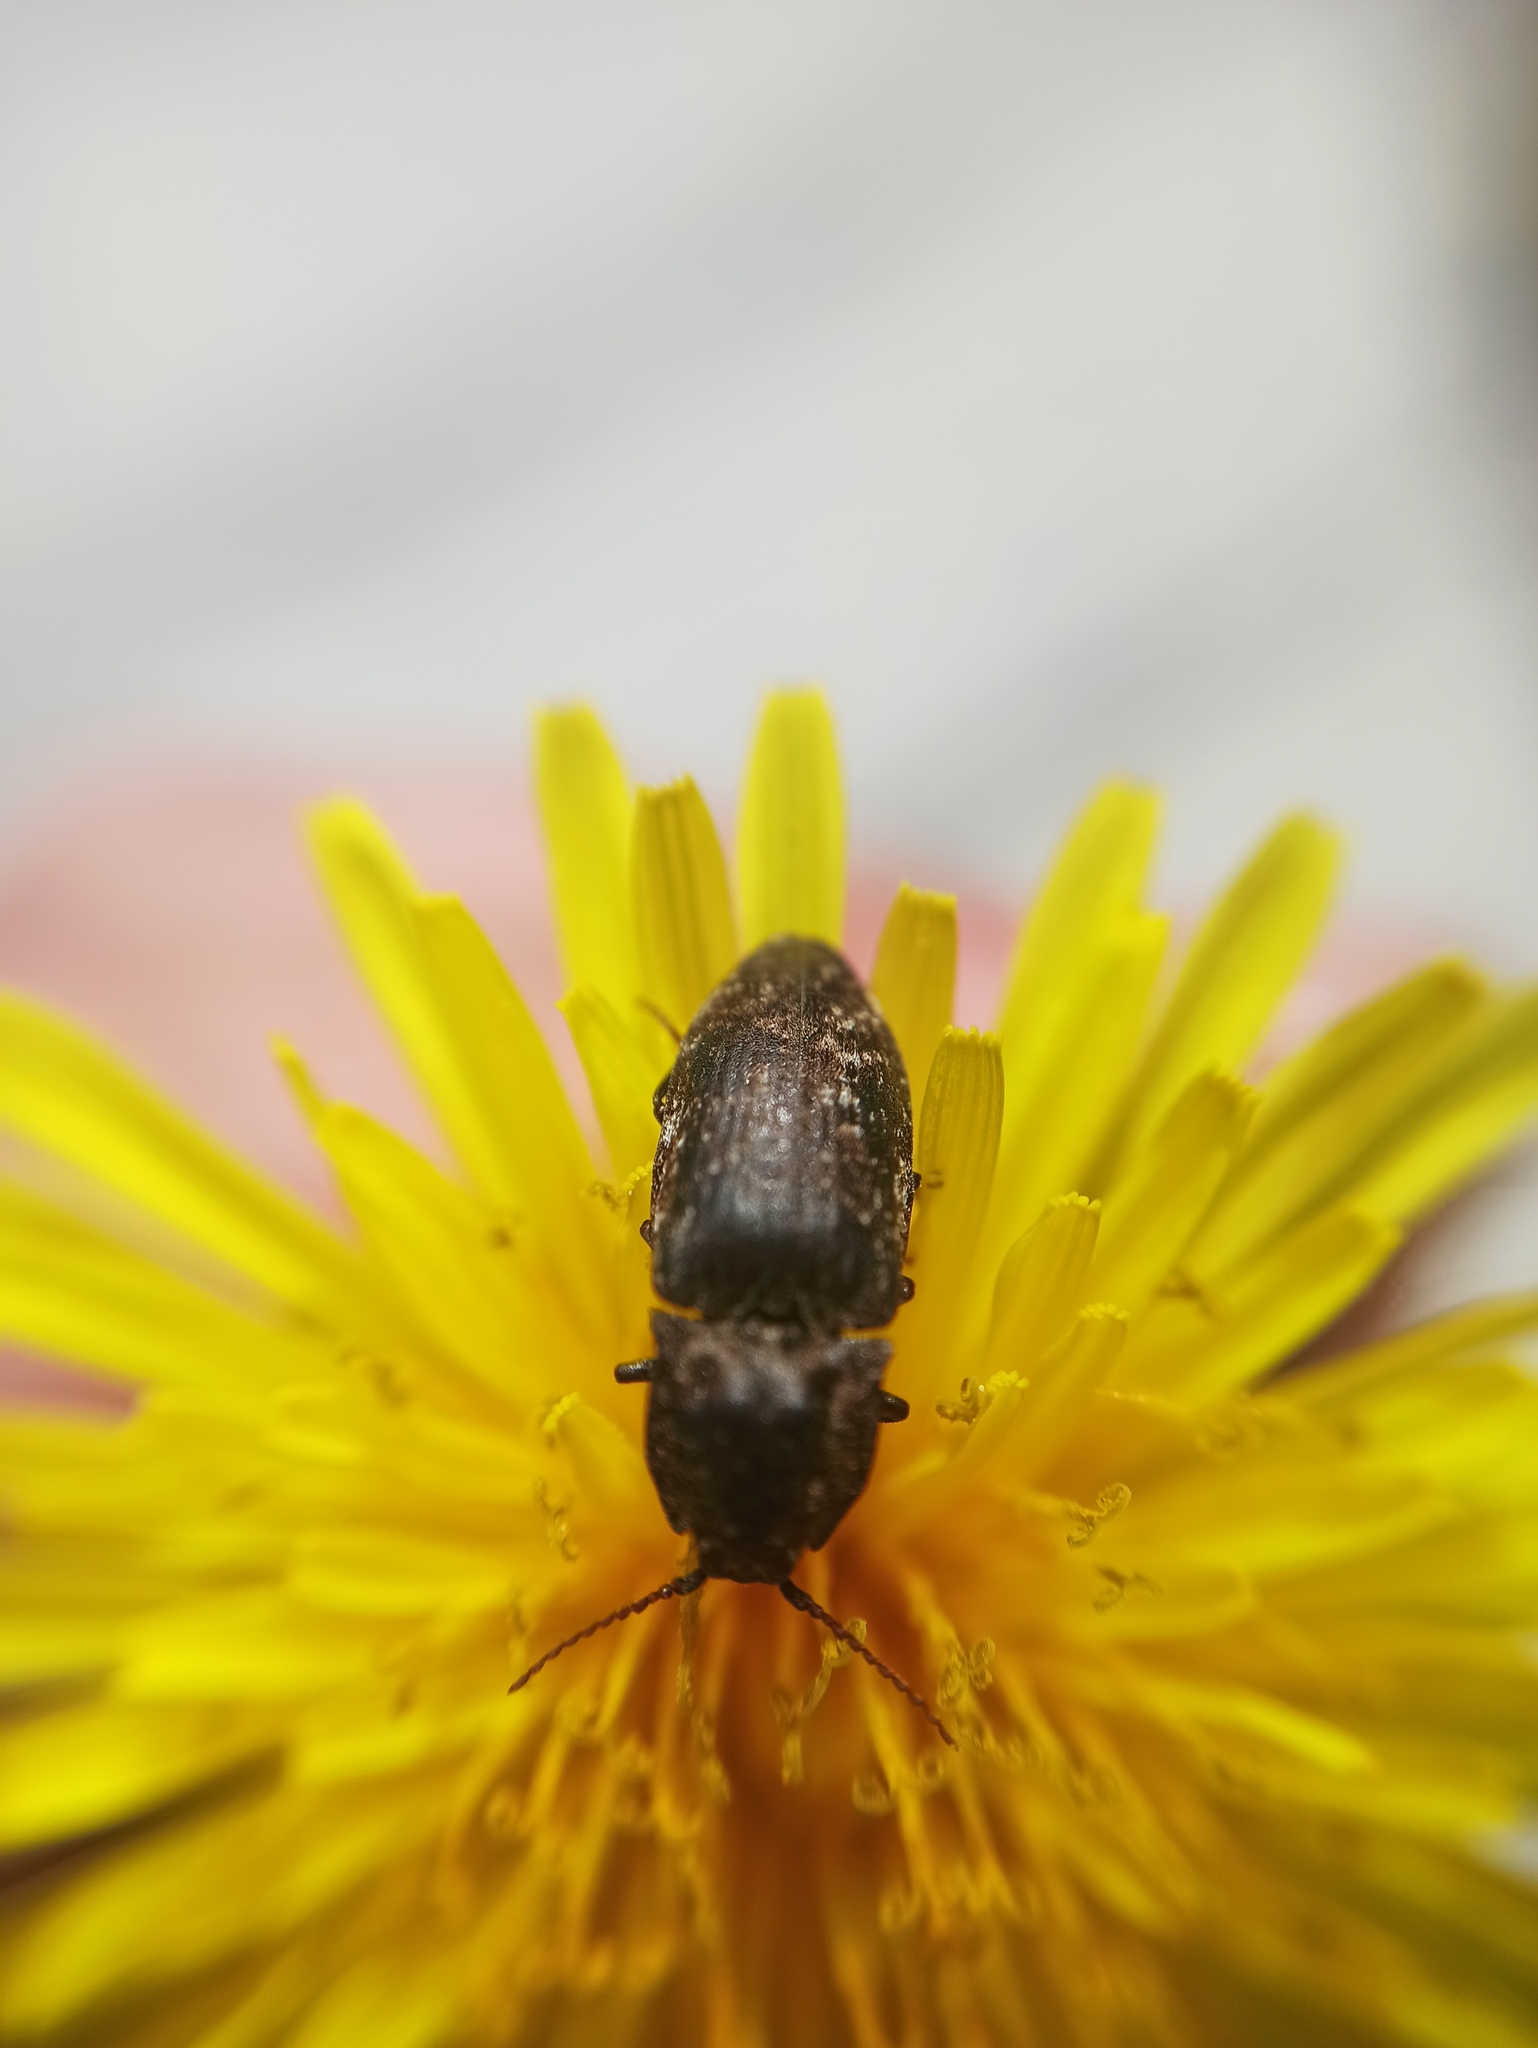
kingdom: Animalia
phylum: Arthropoda
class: Insecta
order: Coleoptera
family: Elateridae
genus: Agrypnus
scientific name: Agrypnus murinus
